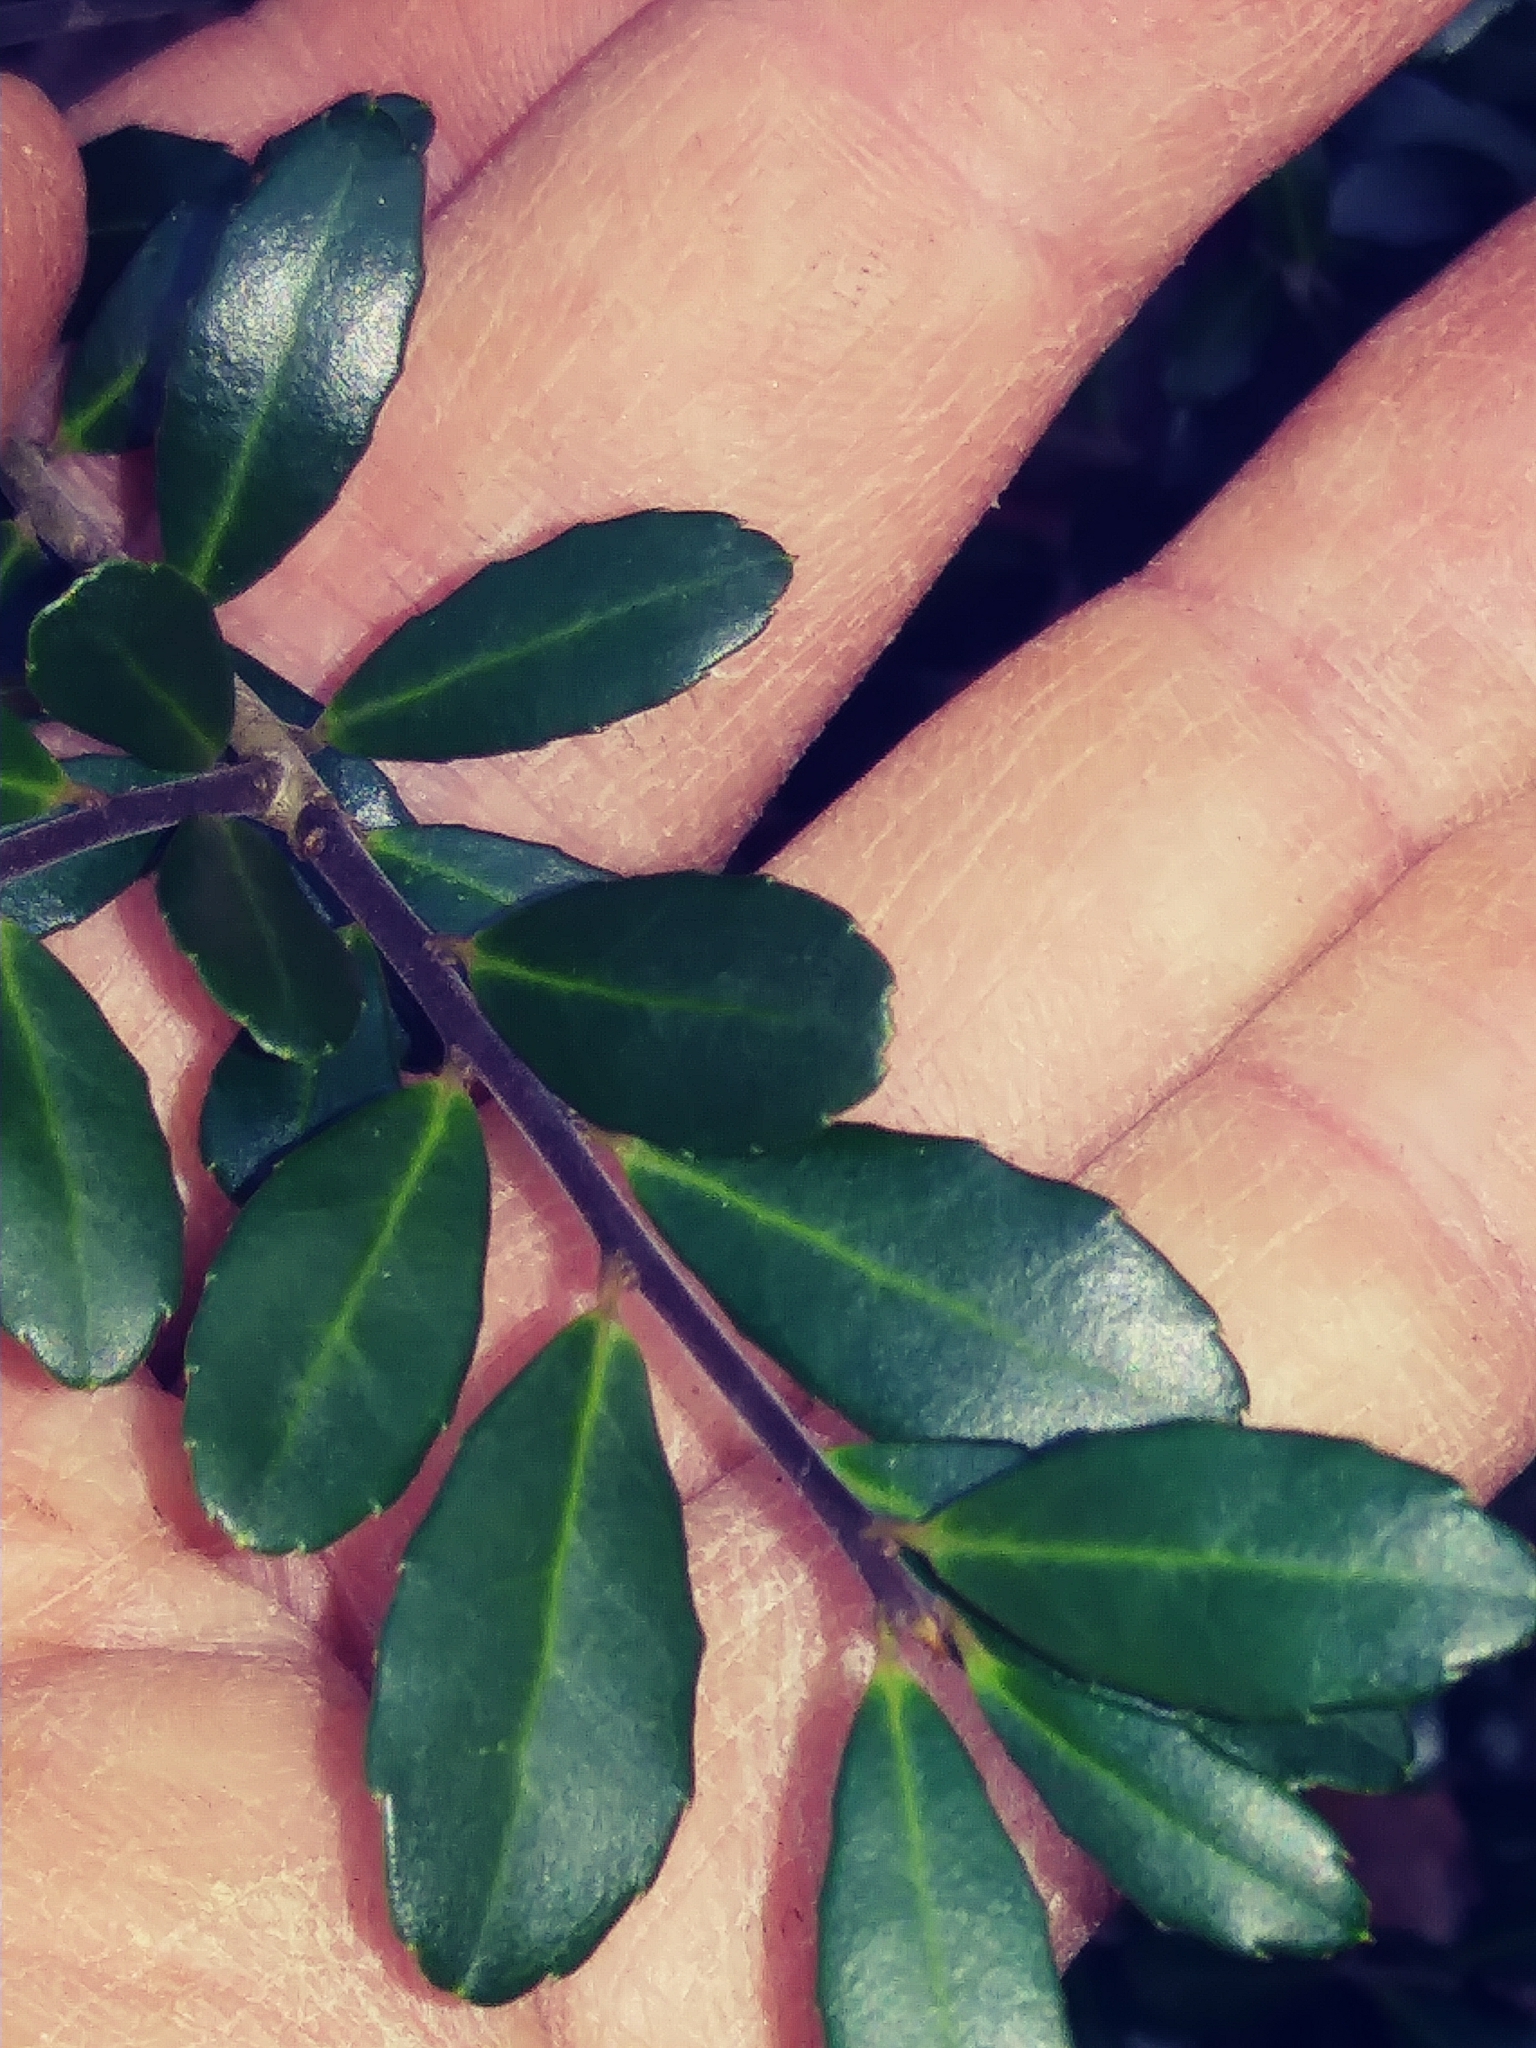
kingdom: Plantae
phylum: Tracheophyta
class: Magnoliopsida
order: Aquifoliales
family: Aquifoliaceae
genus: Ilex
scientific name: Ilex crenata
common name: Japanese holly
